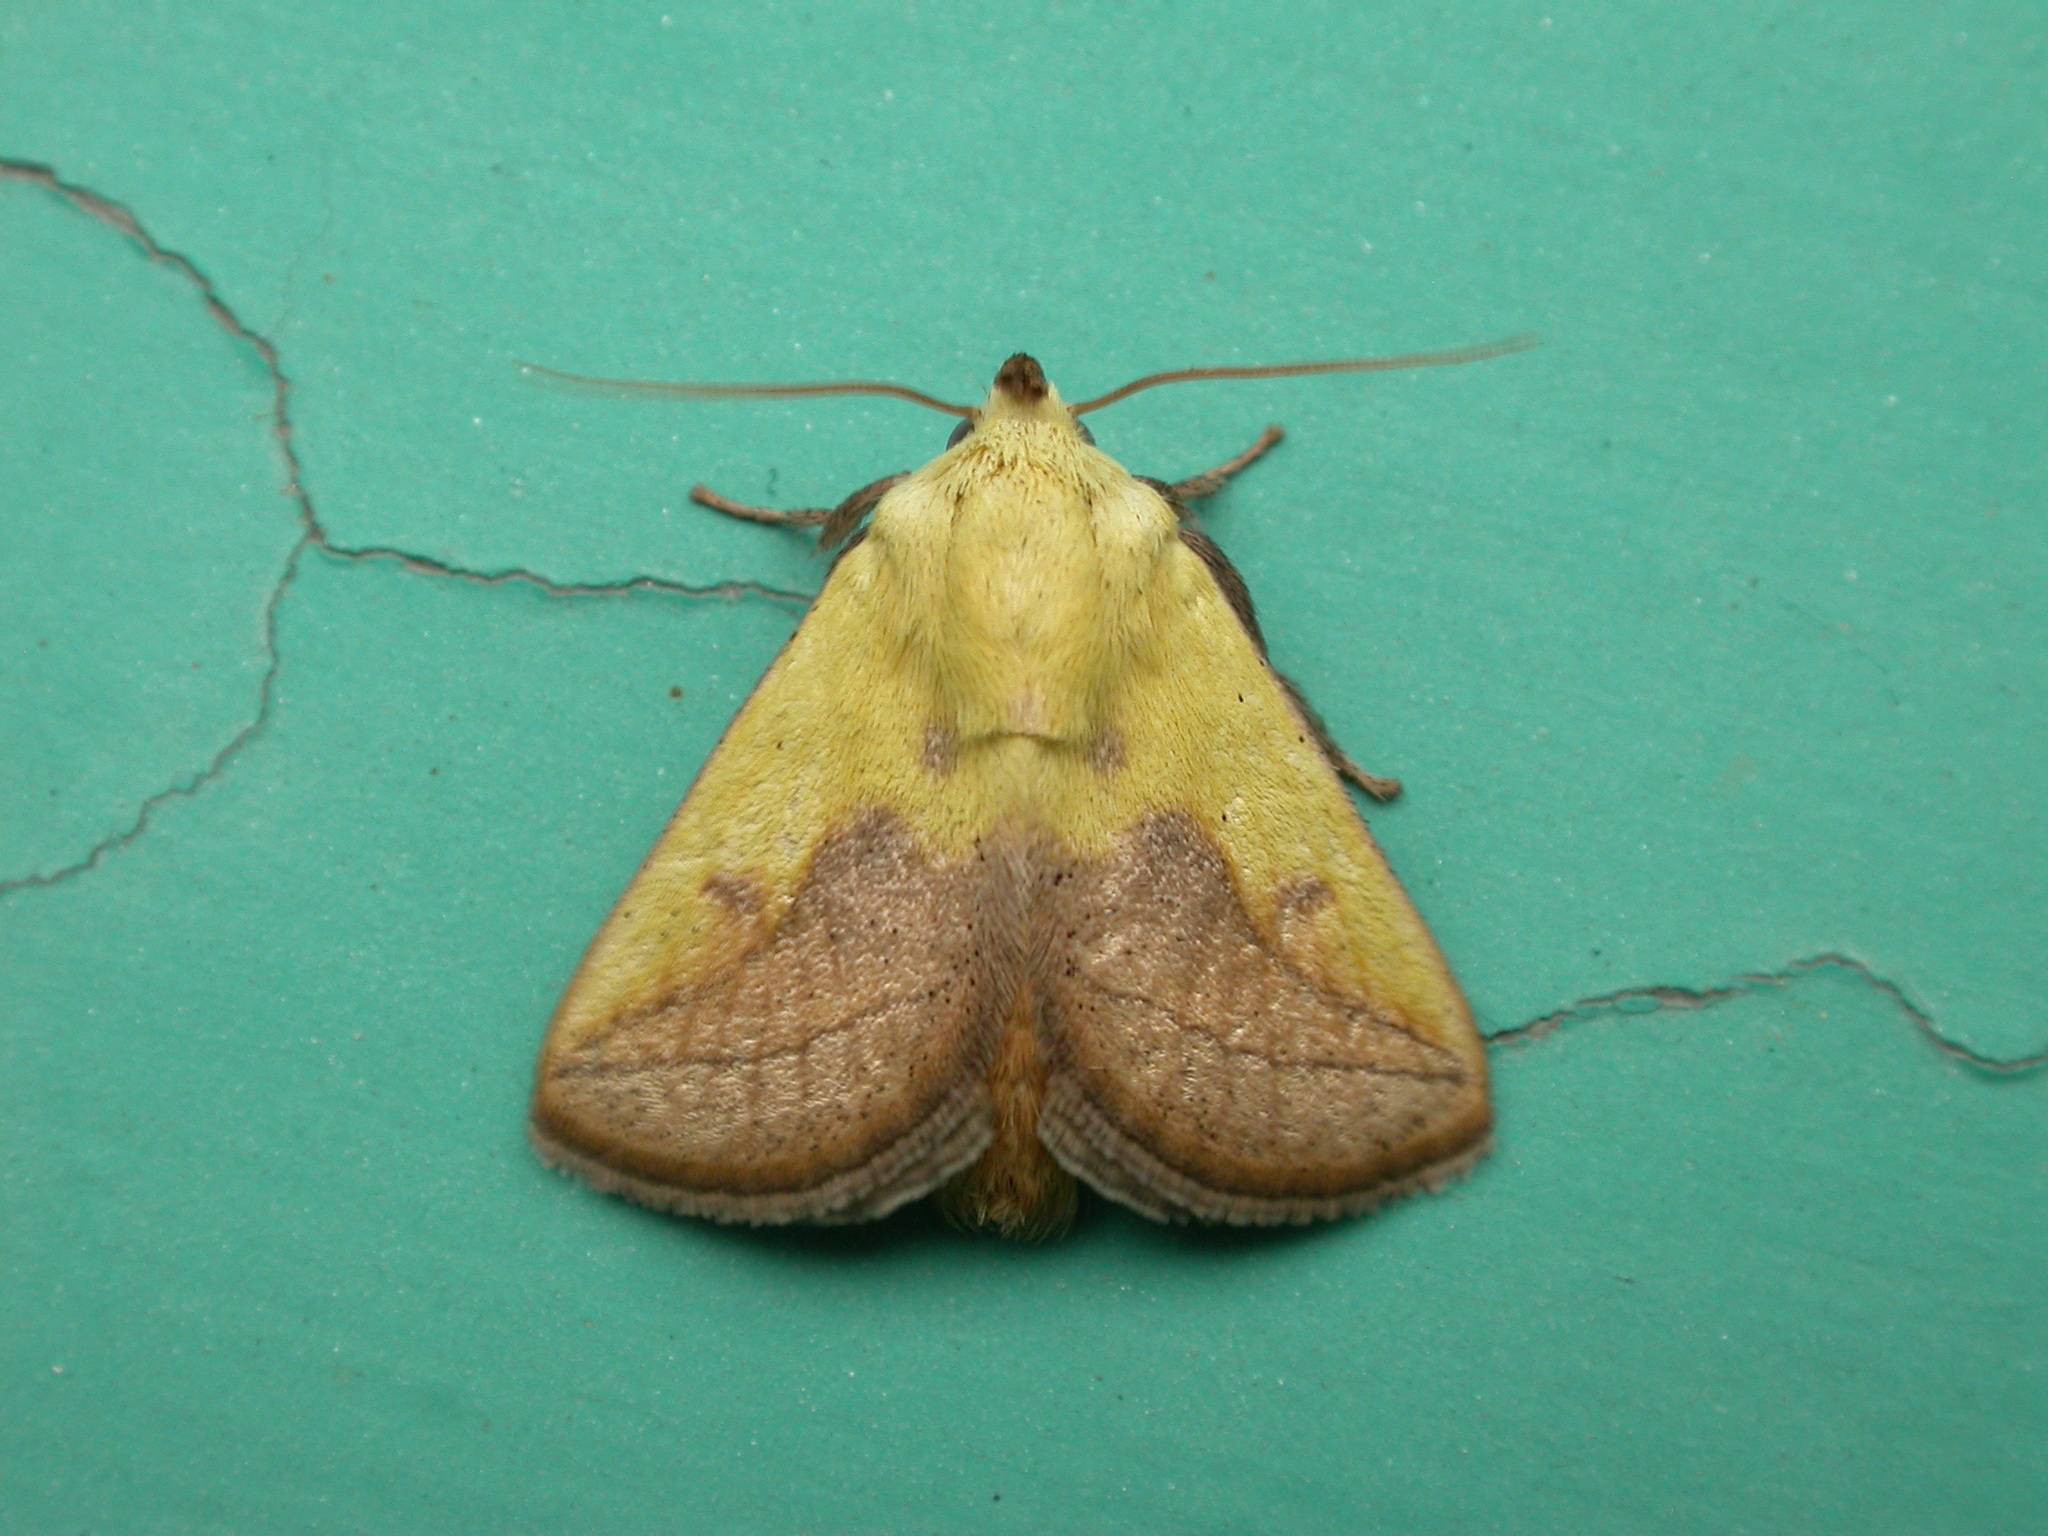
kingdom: Animalia
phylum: Arthropoda
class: Insecta
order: Lepidoptera
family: Limacodidae
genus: Monema
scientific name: Monema flavescens
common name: Oriental moth
